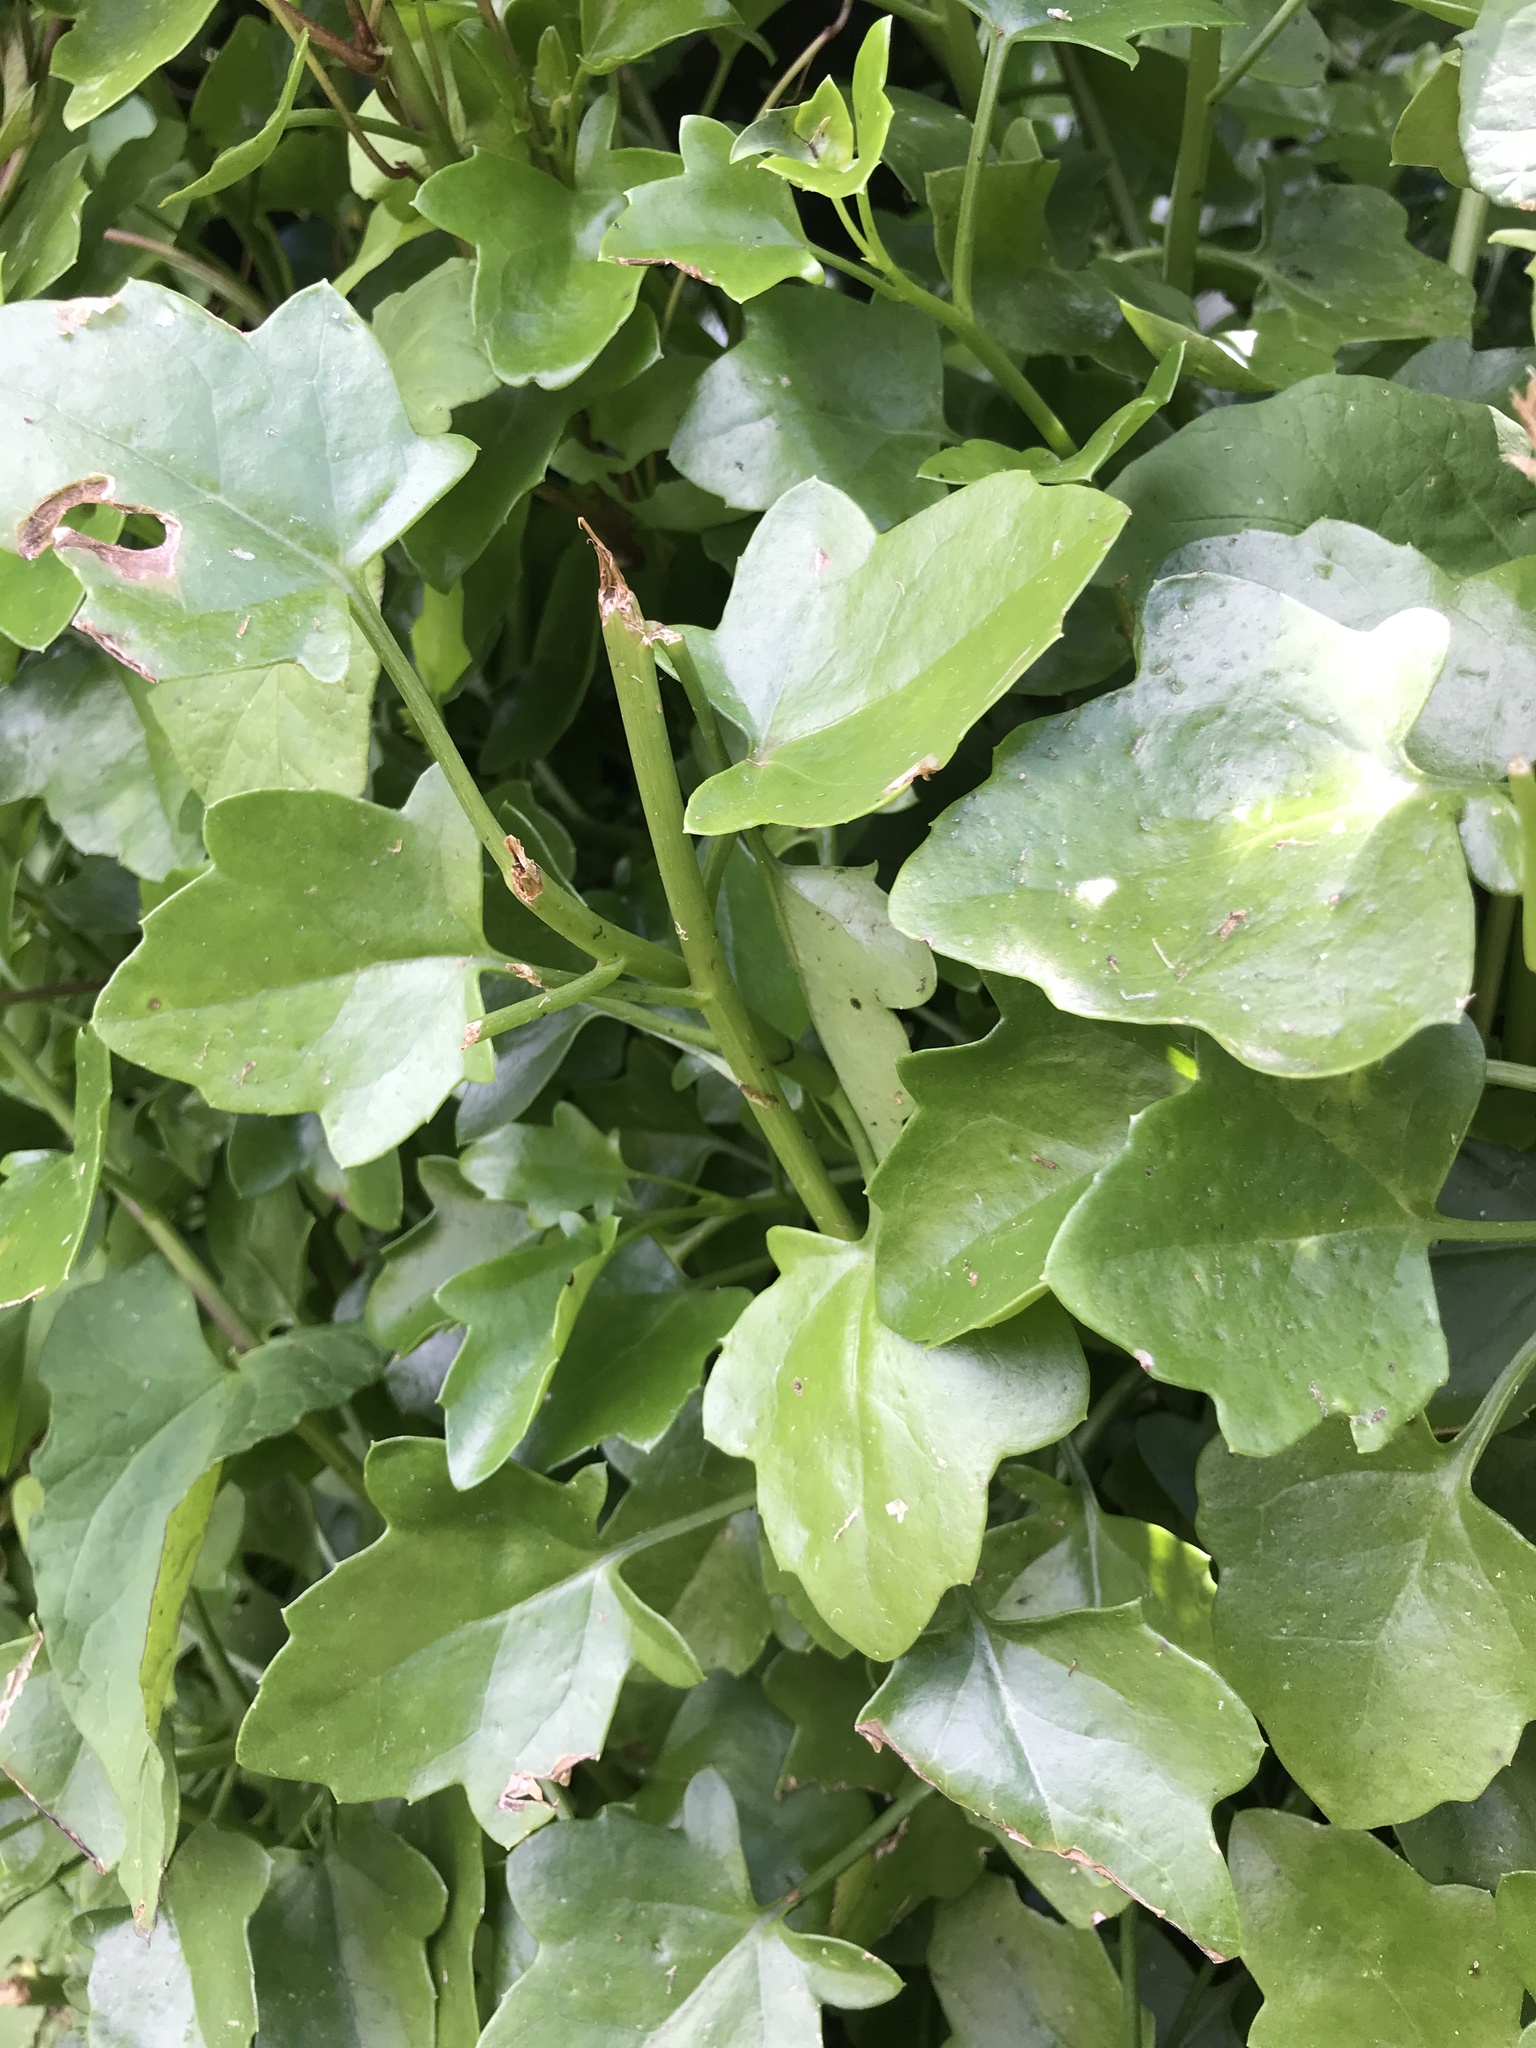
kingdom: Plantae
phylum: Tracheophyta
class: Magnoliopsida
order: Asterales
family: Asteraceae
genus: Senecio
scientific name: Senecio angulatus
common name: Climbing groundsel
